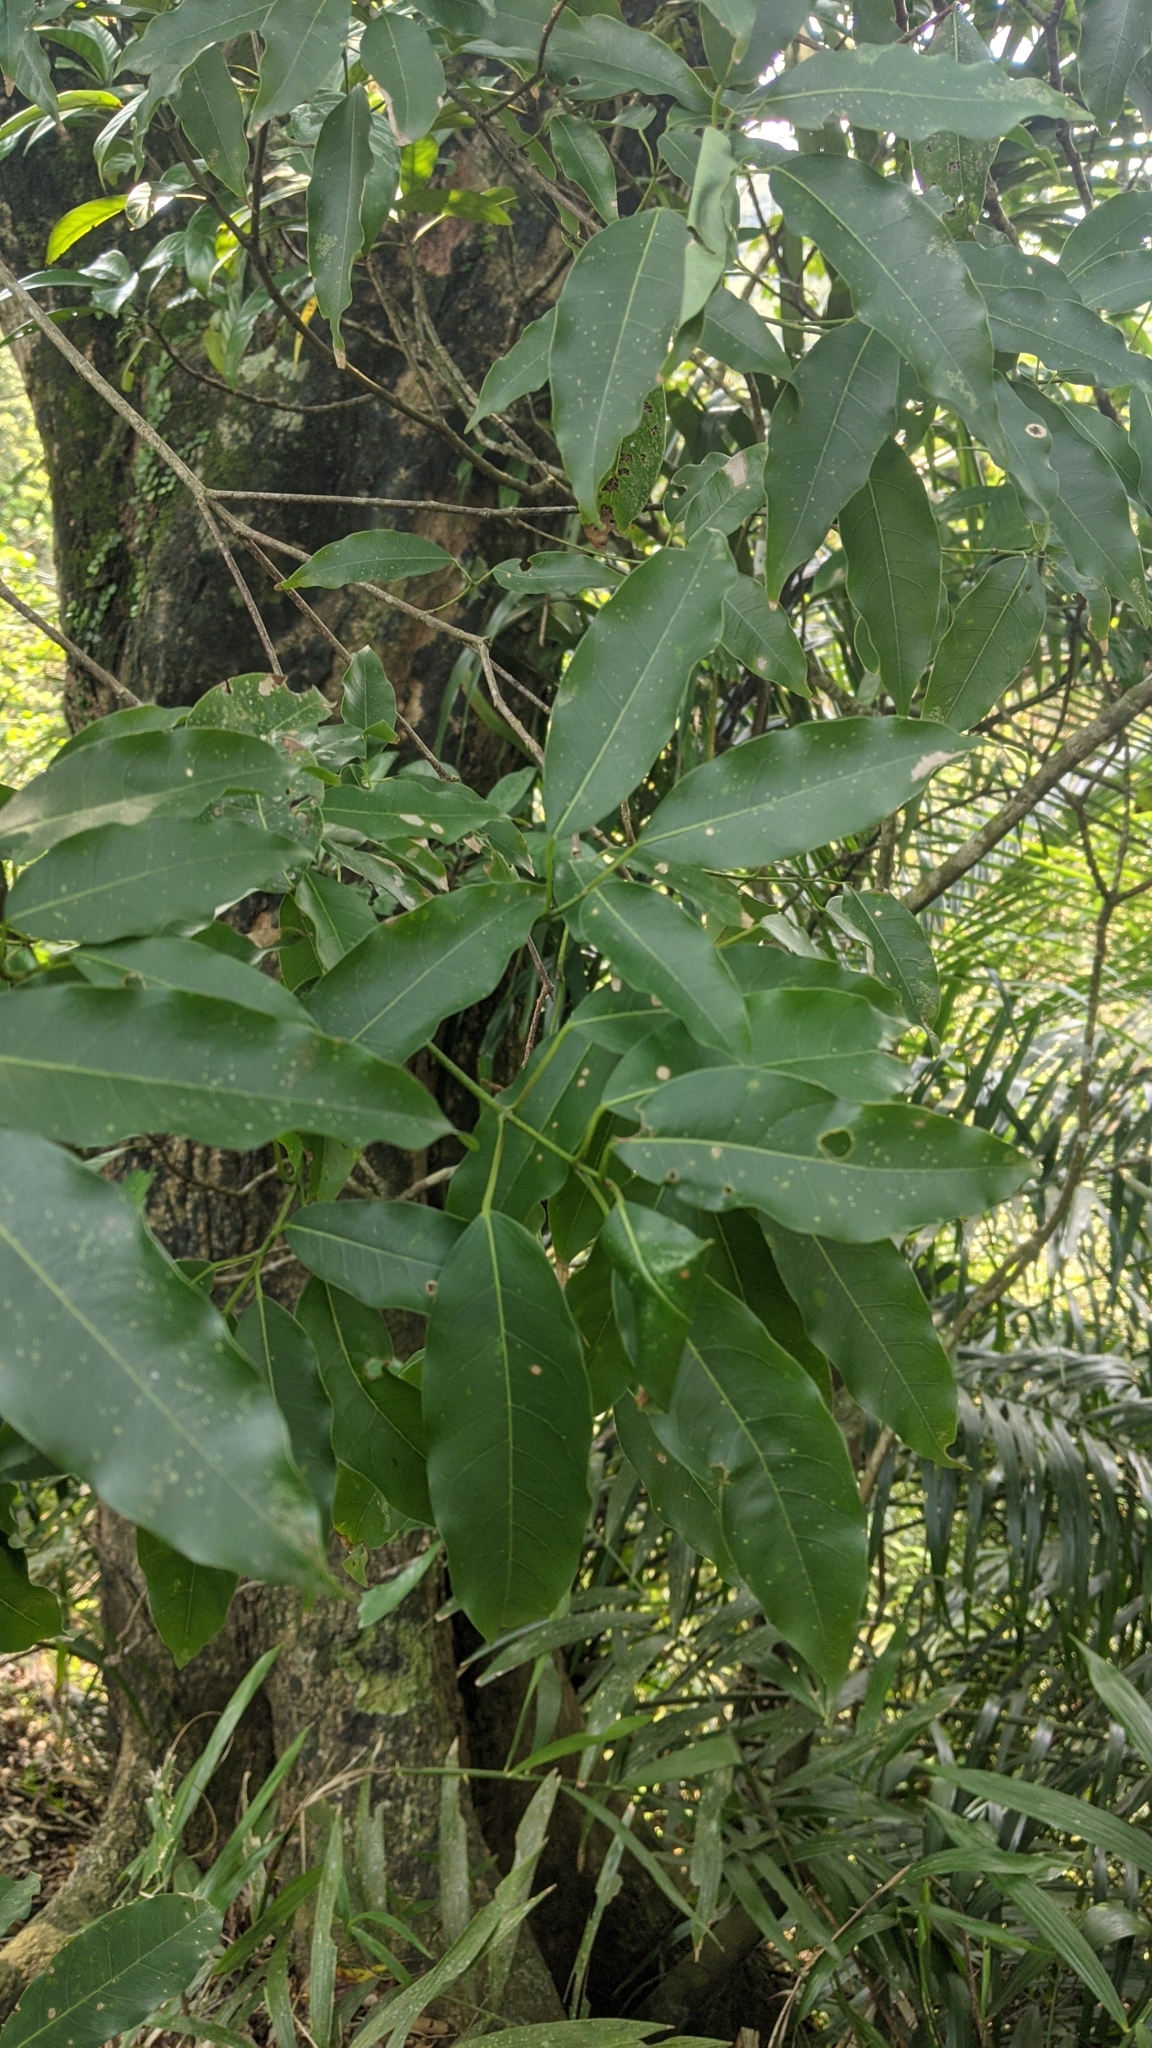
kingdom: Plantae
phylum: Tracheophyta
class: Magnoliopsida
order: Sapindales
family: Sapindaceae
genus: Acer
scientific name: Acer oblongum
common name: Himalayan maple
